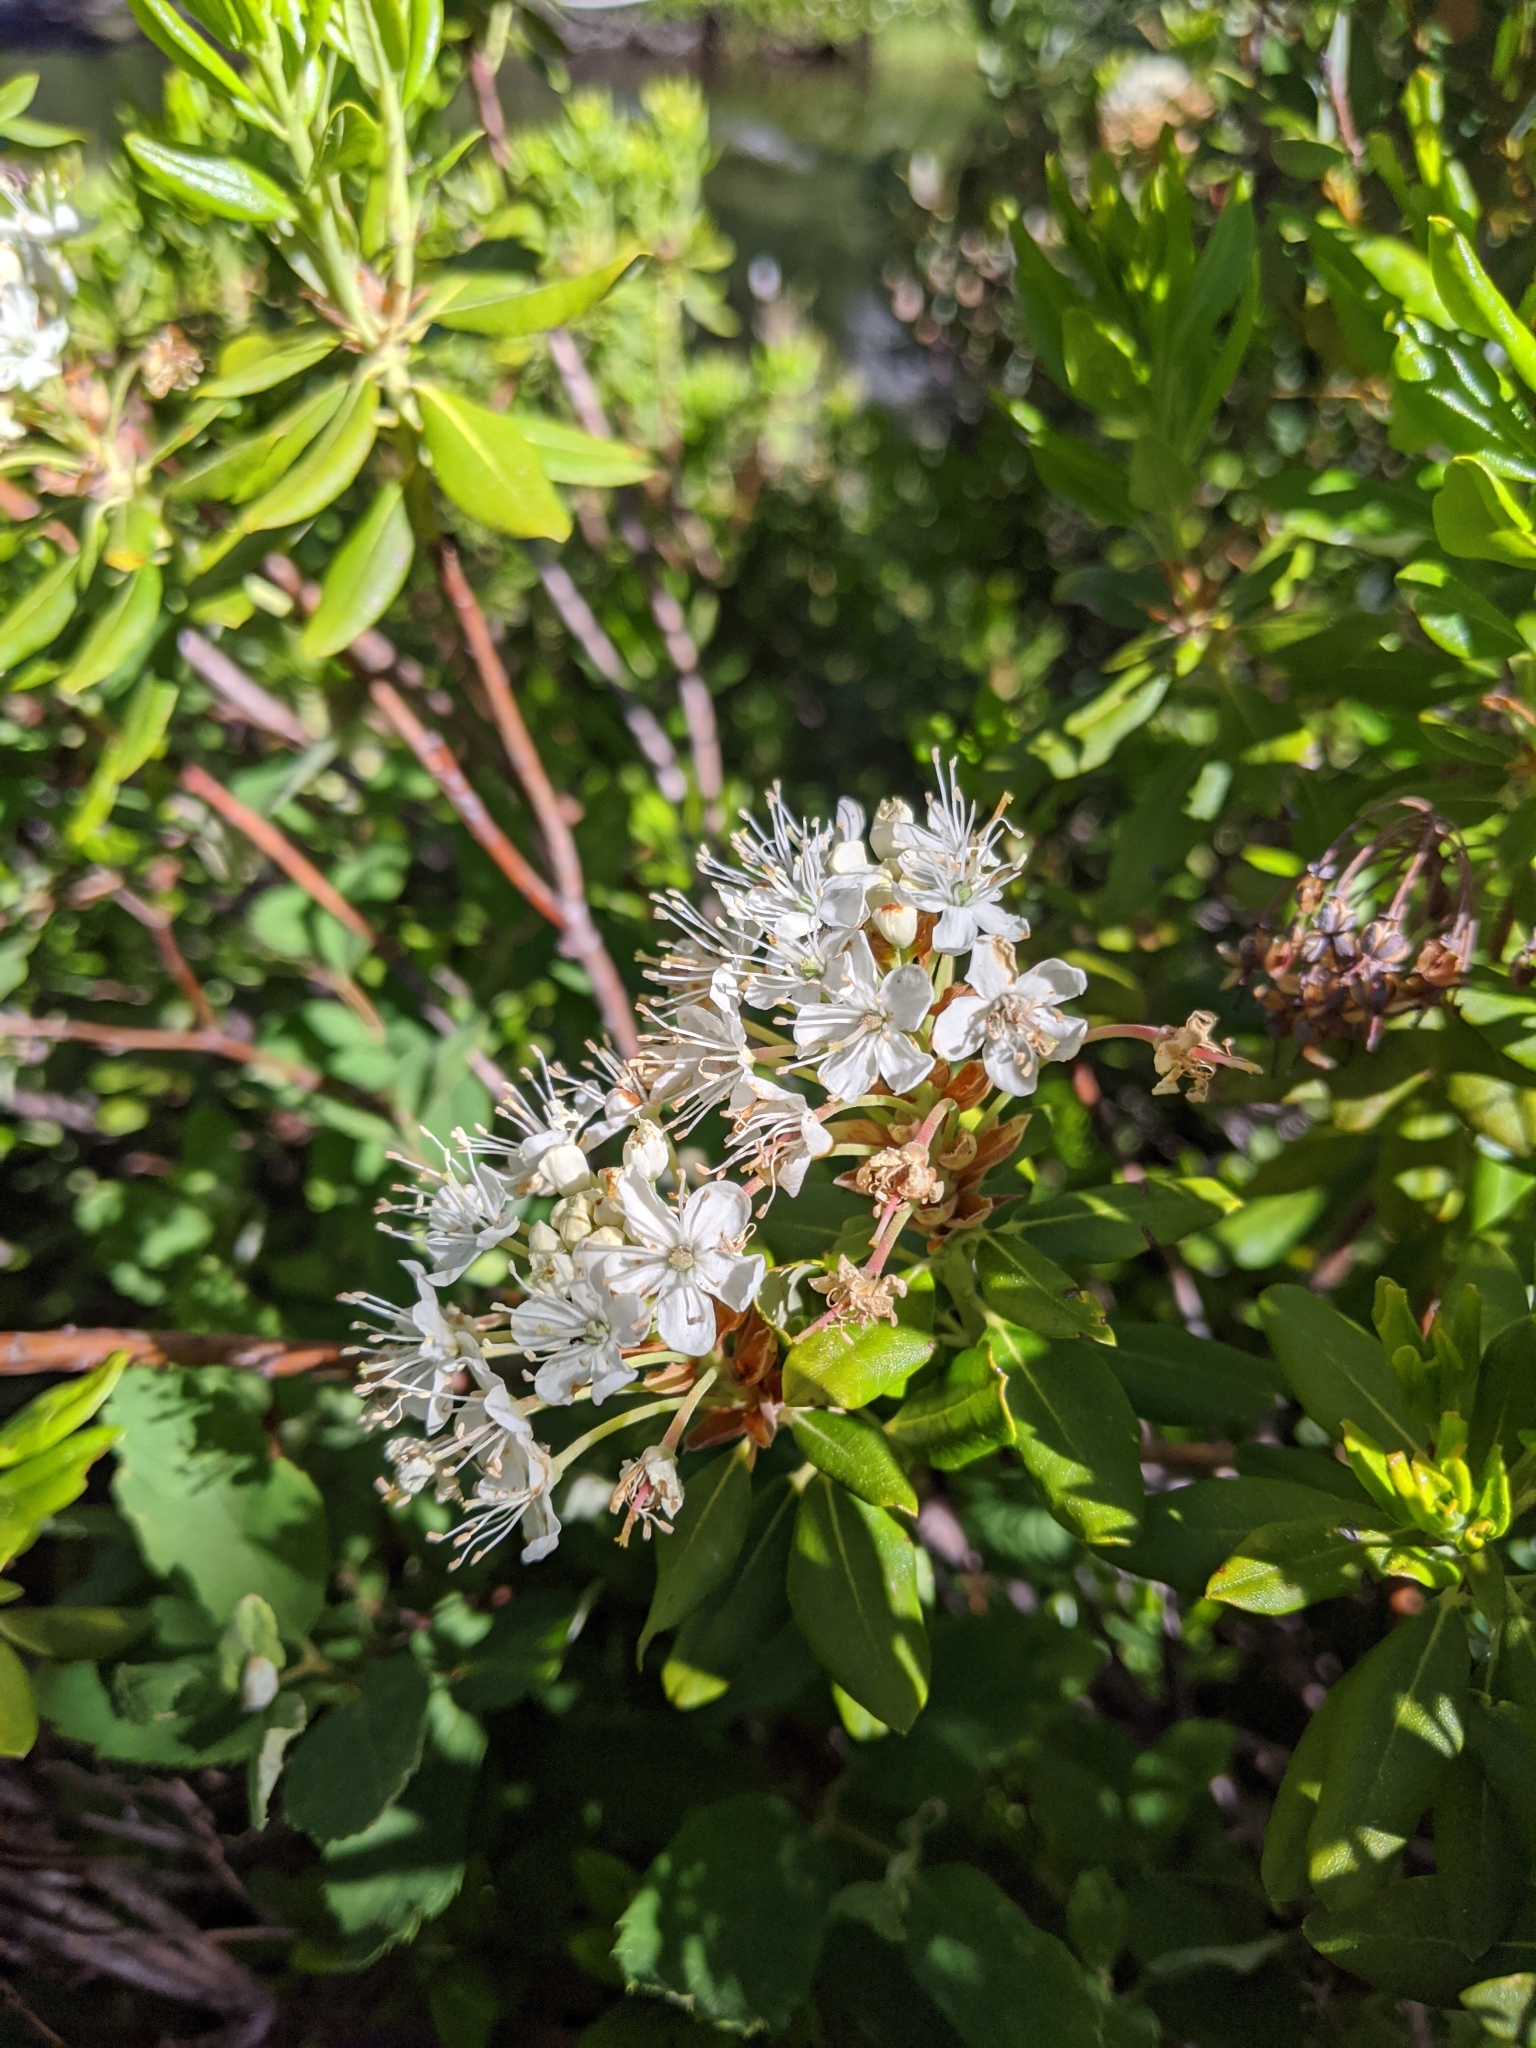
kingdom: Plantae
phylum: Tracheophyta
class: Magnoliopsida
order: Ericales
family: Ericaceae
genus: Rhododendron
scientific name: Rhododendron columbianum
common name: Western labrador tea
